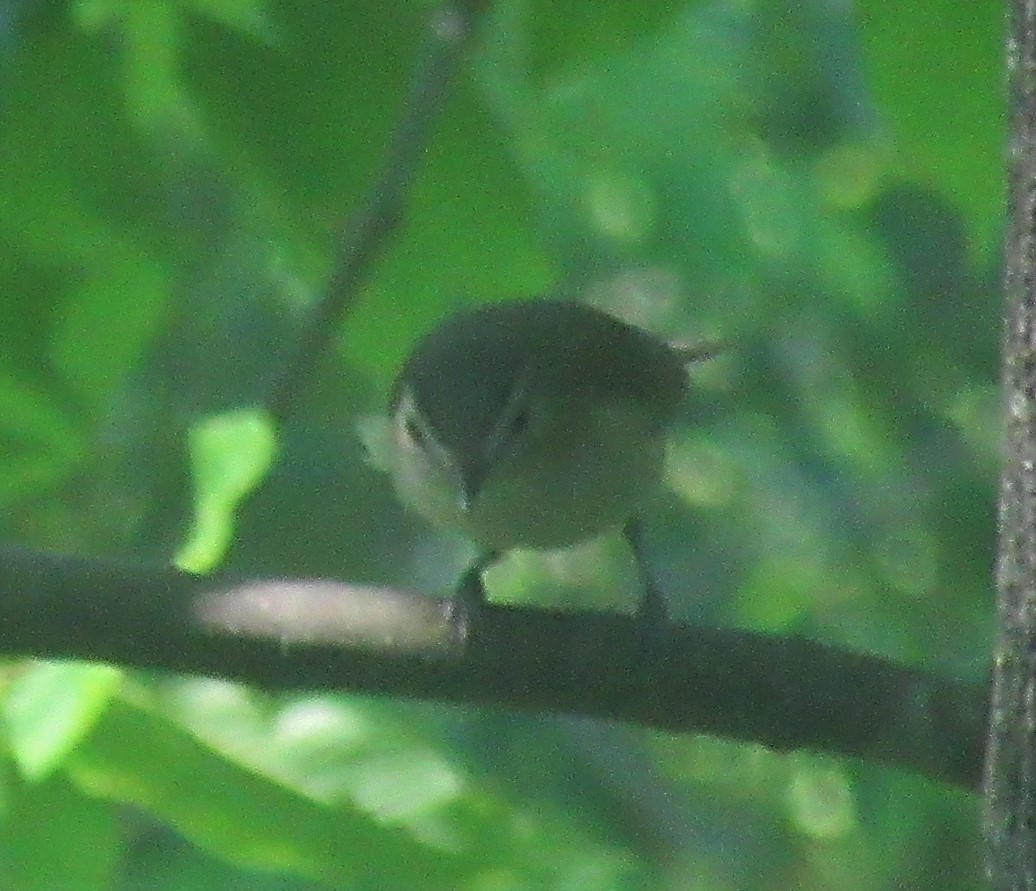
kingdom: Animalia
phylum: Chordata
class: Aves
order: Passeriformes
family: Vireonidae
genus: Vireo
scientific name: Vireo olivaceus
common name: Red-eyed vireo
